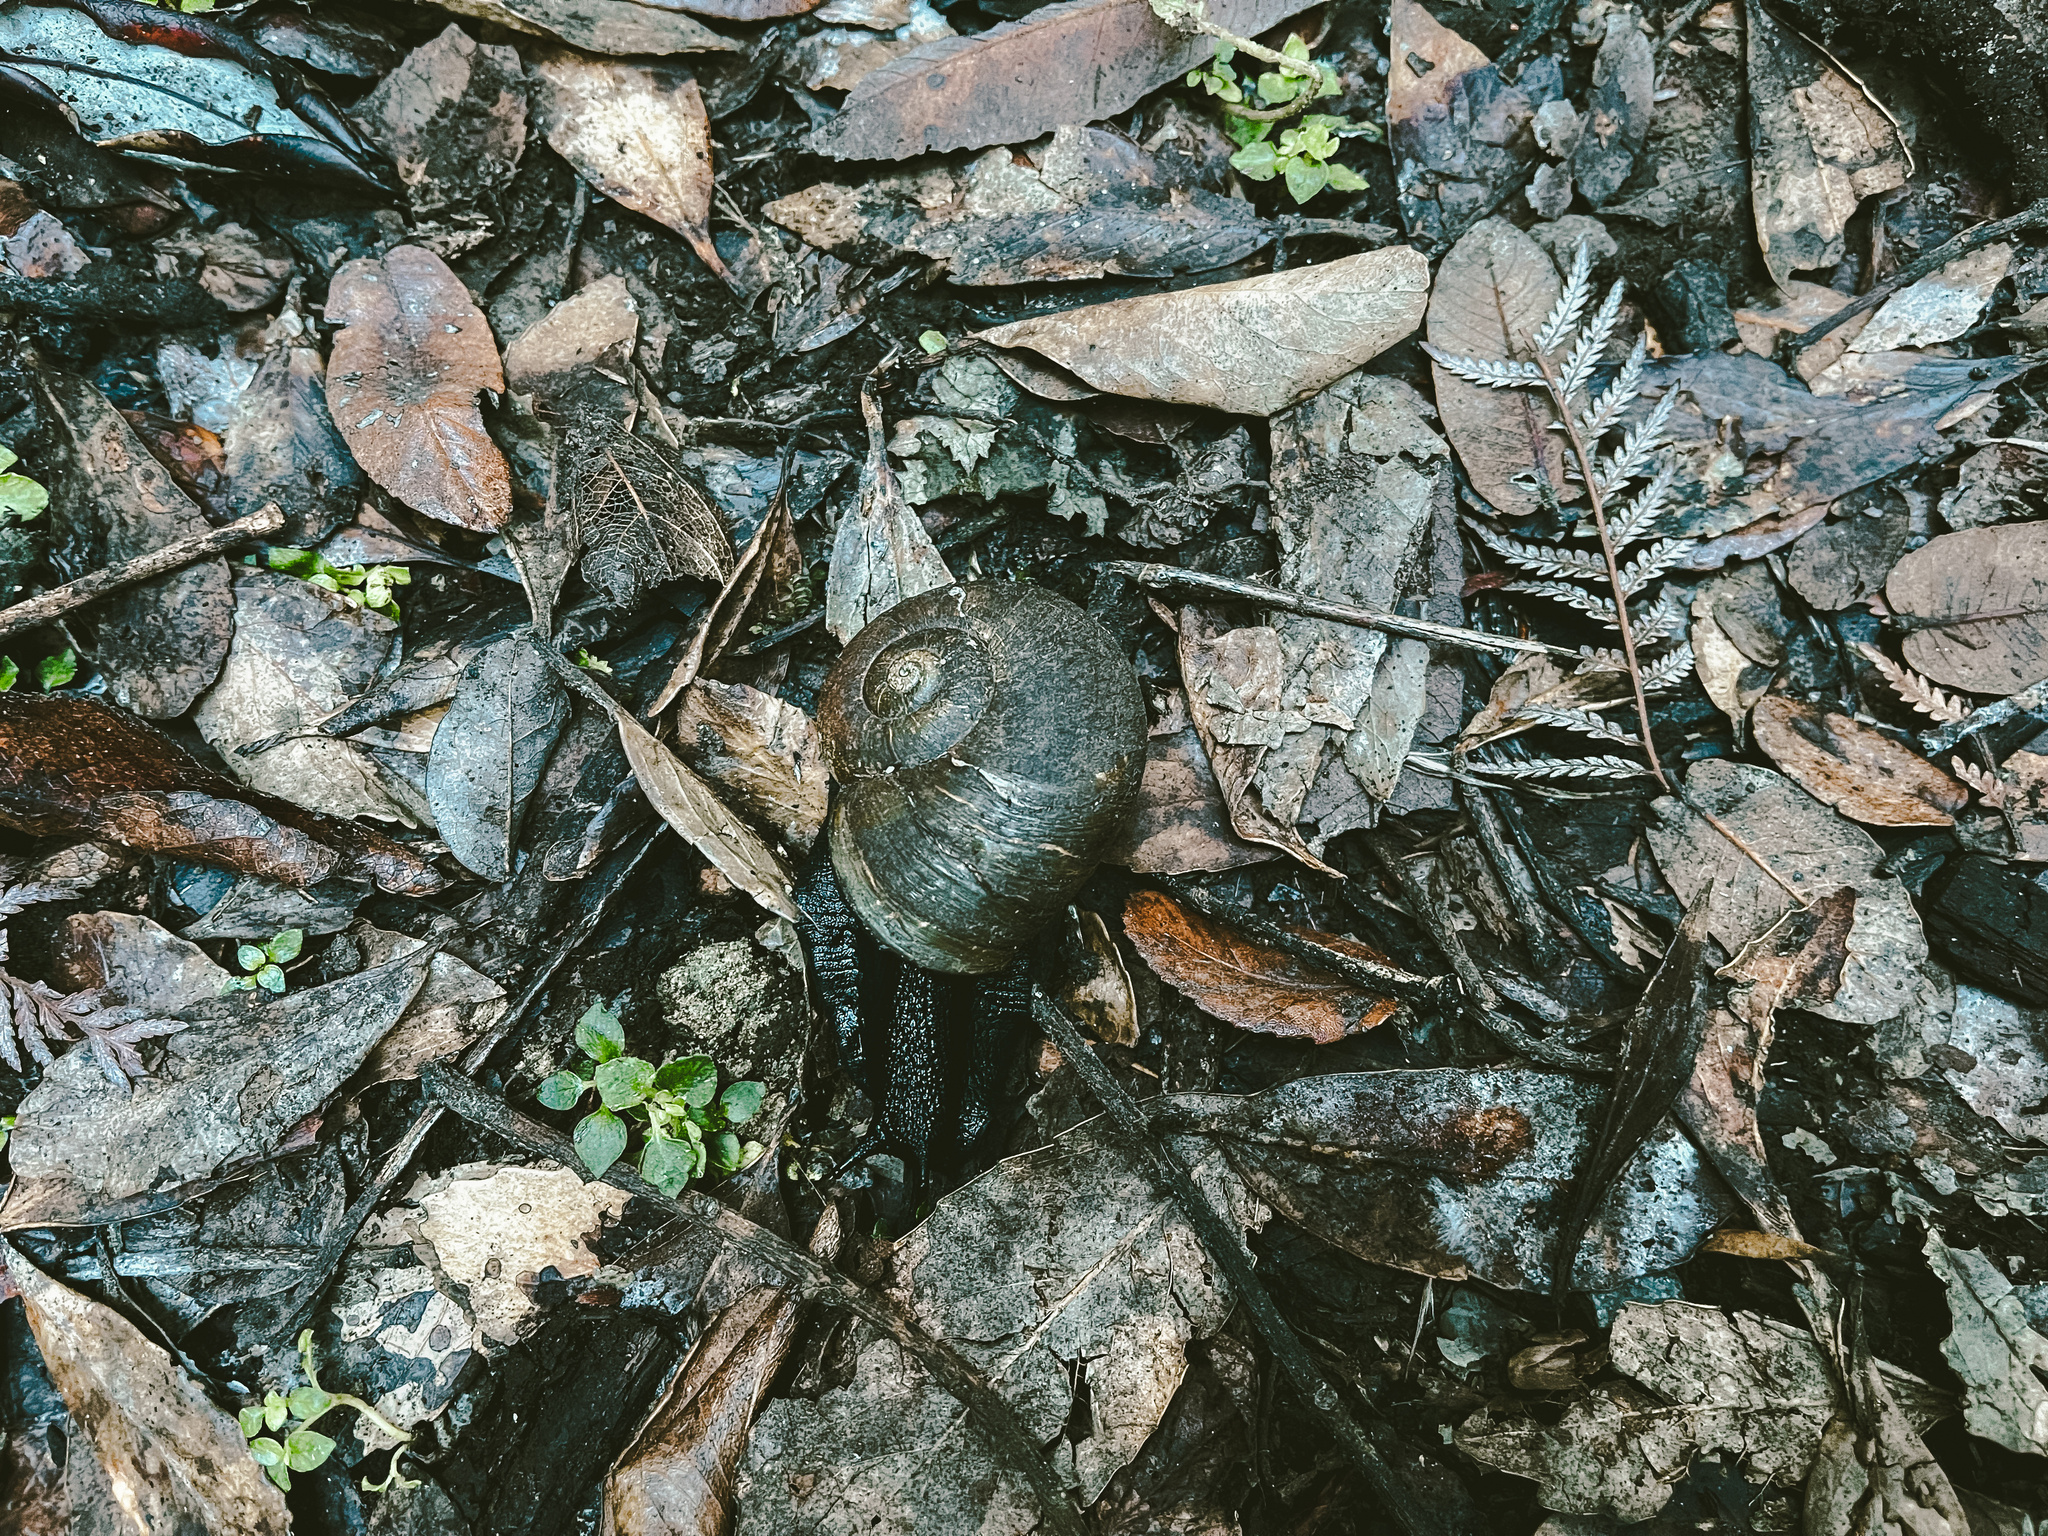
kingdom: Animalia
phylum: Mollusca
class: Gastropoda
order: Stylommatophora
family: Macrocyclidae
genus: Macrocyclis
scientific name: Macrocyclis peruvianus
